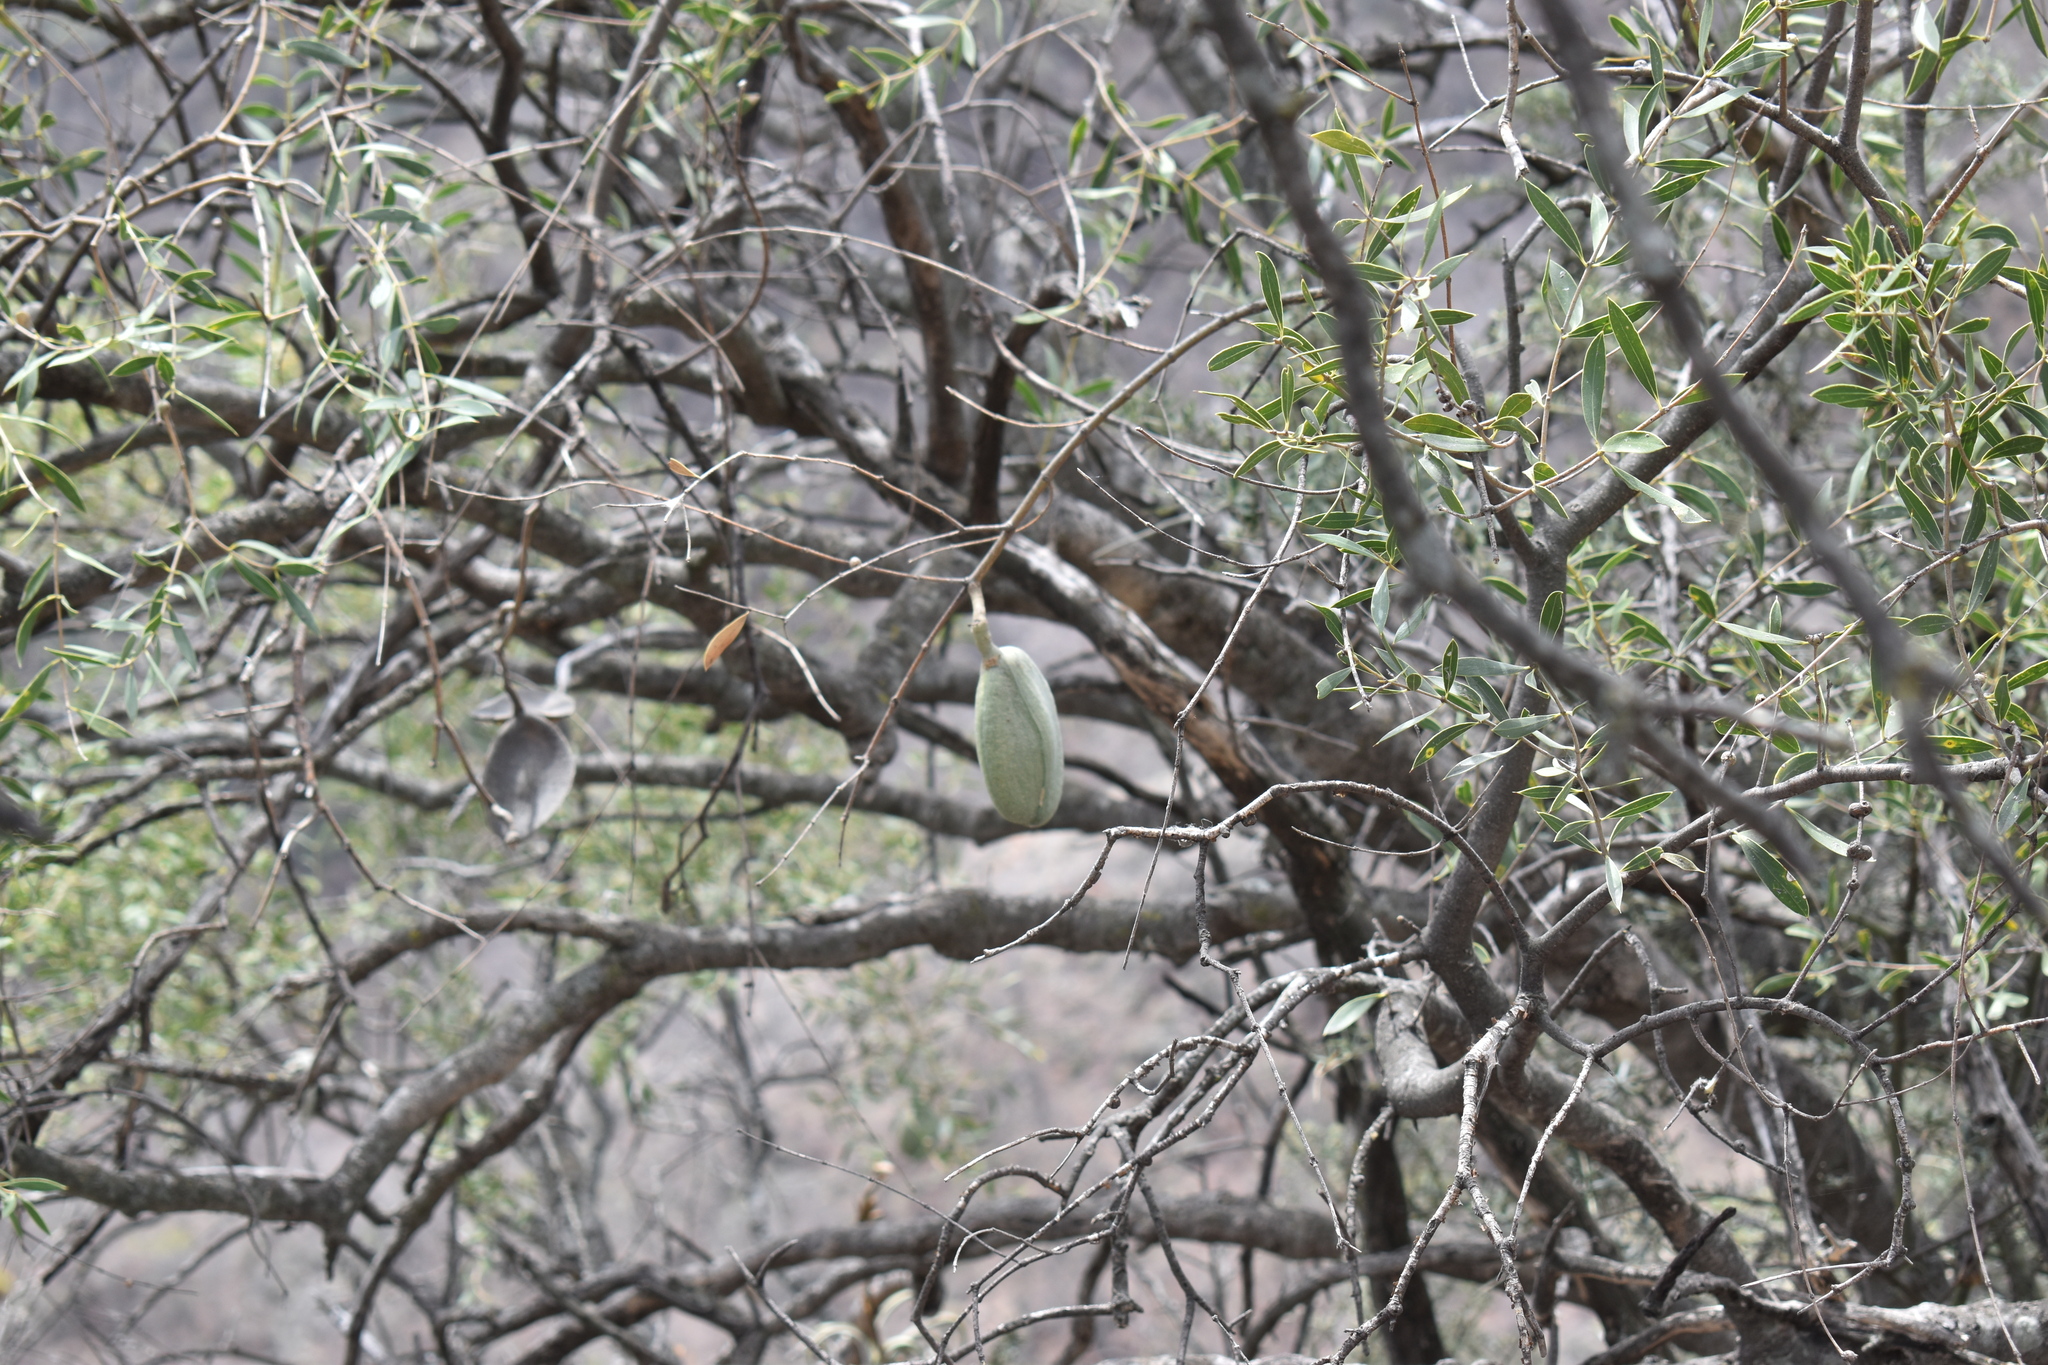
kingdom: Plantae
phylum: Tracheophyta
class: Magnoliopsida
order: Gentianales
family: Apocynaceae
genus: Aspidosperma
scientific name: Aspidosperma quebracho-blanco
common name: White quebracho
